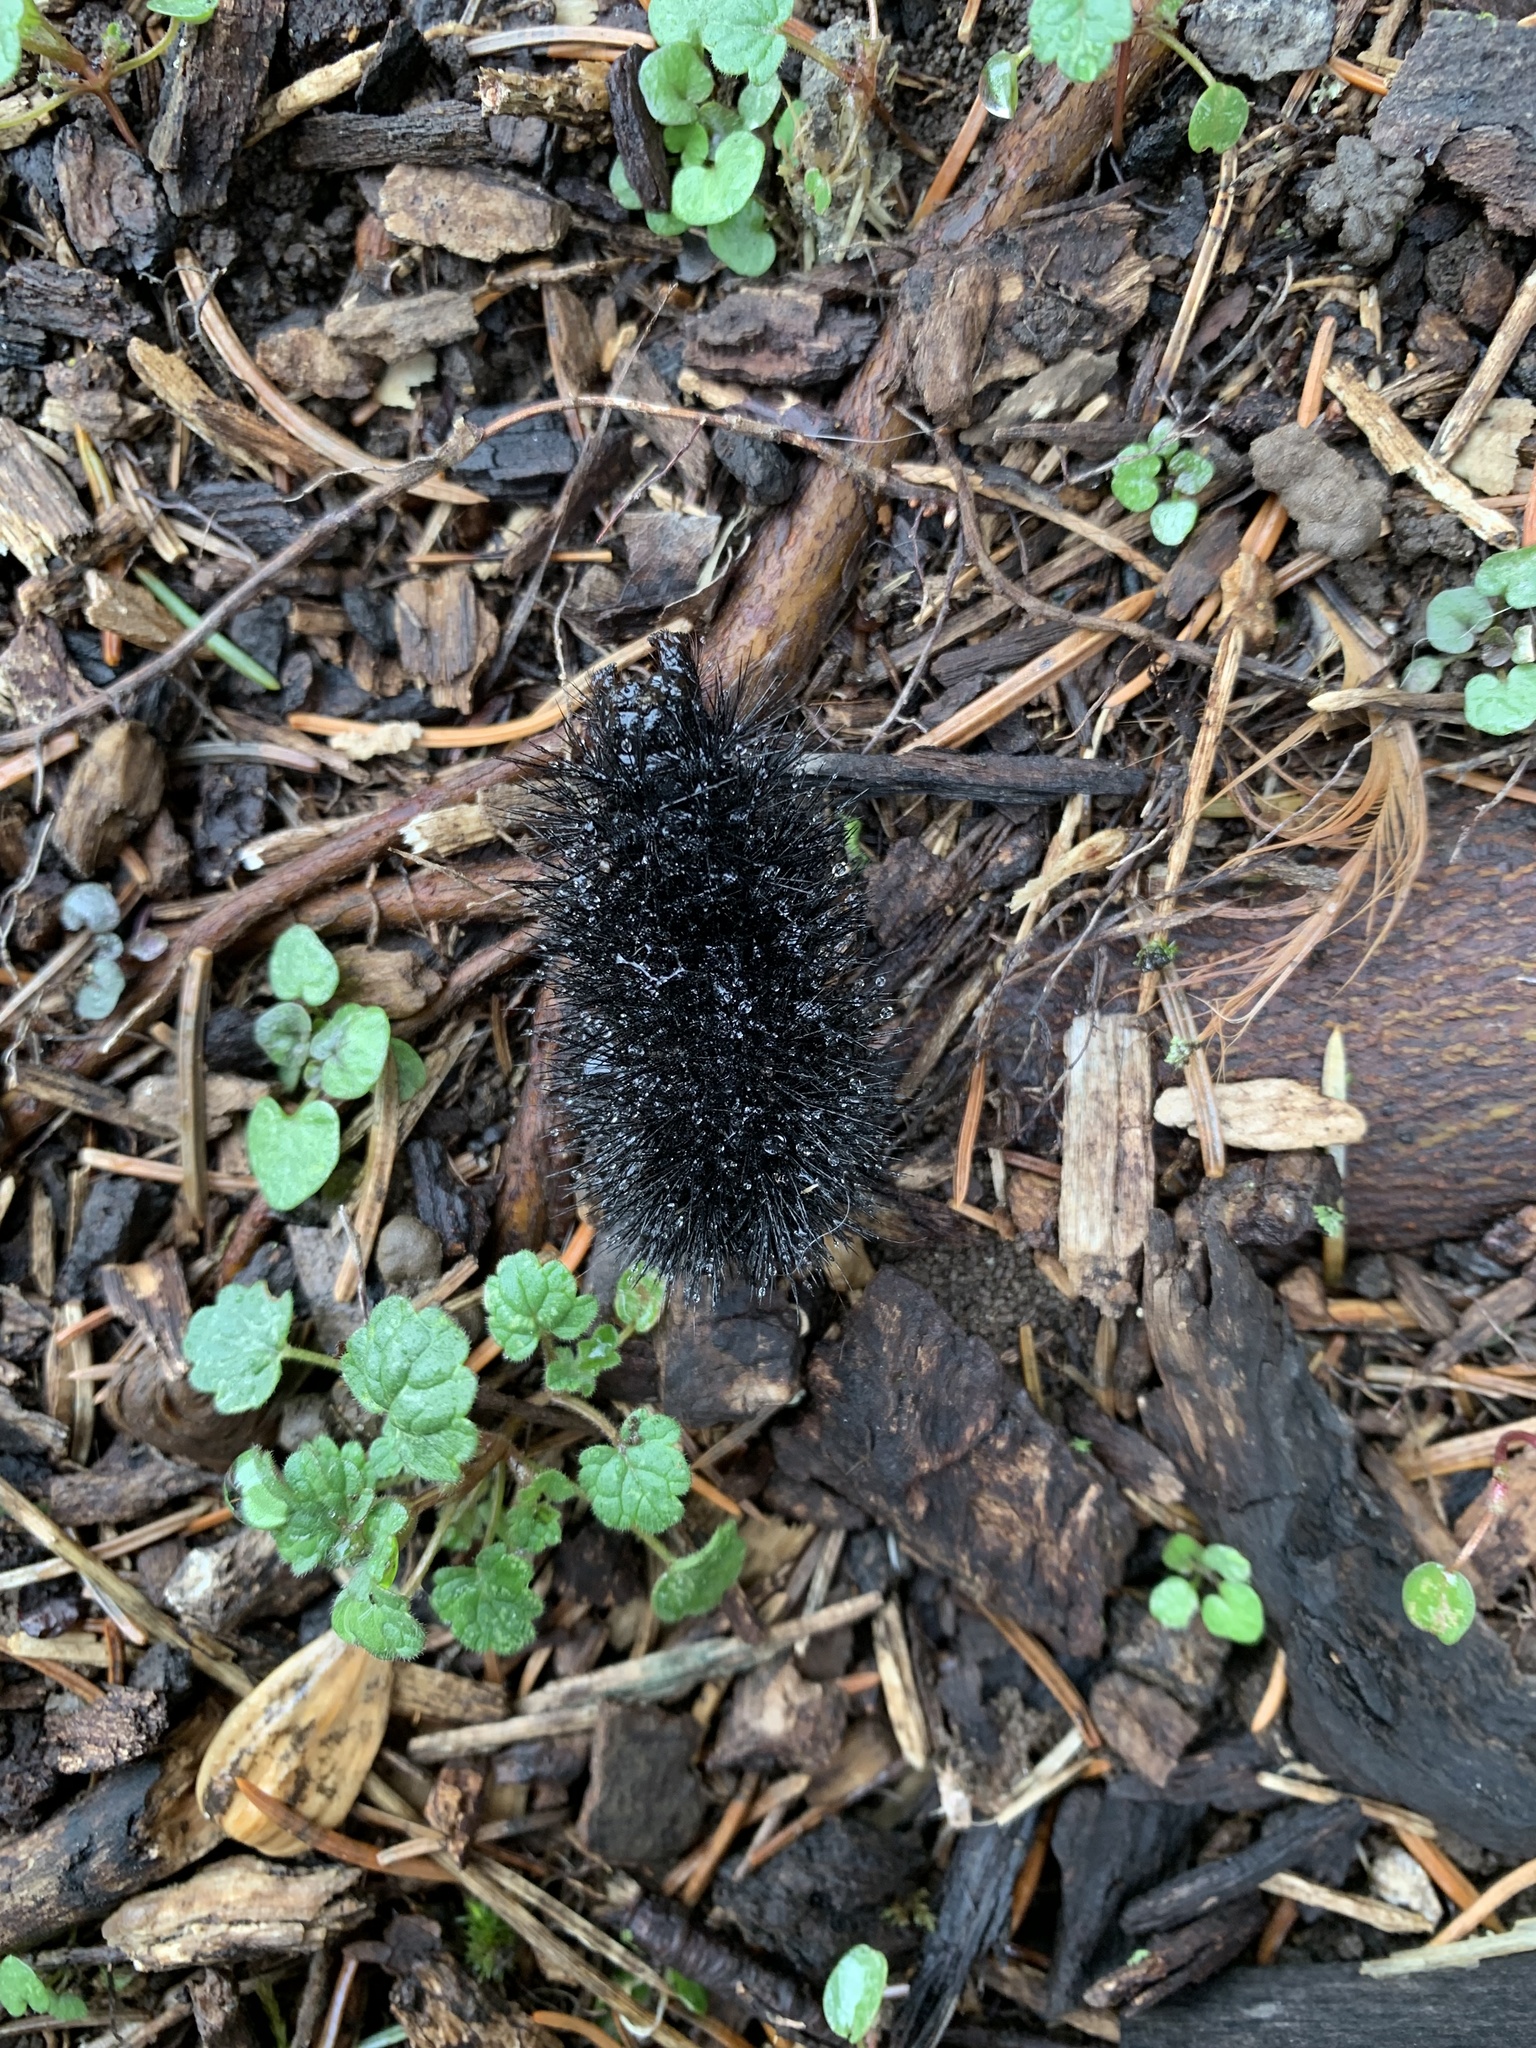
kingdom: Animalia
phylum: Arthropoda
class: Insecta
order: Lepidoptera
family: Erebidae
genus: Hypercompe
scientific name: Hypercompe scribonia
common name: Giant leopard moth
